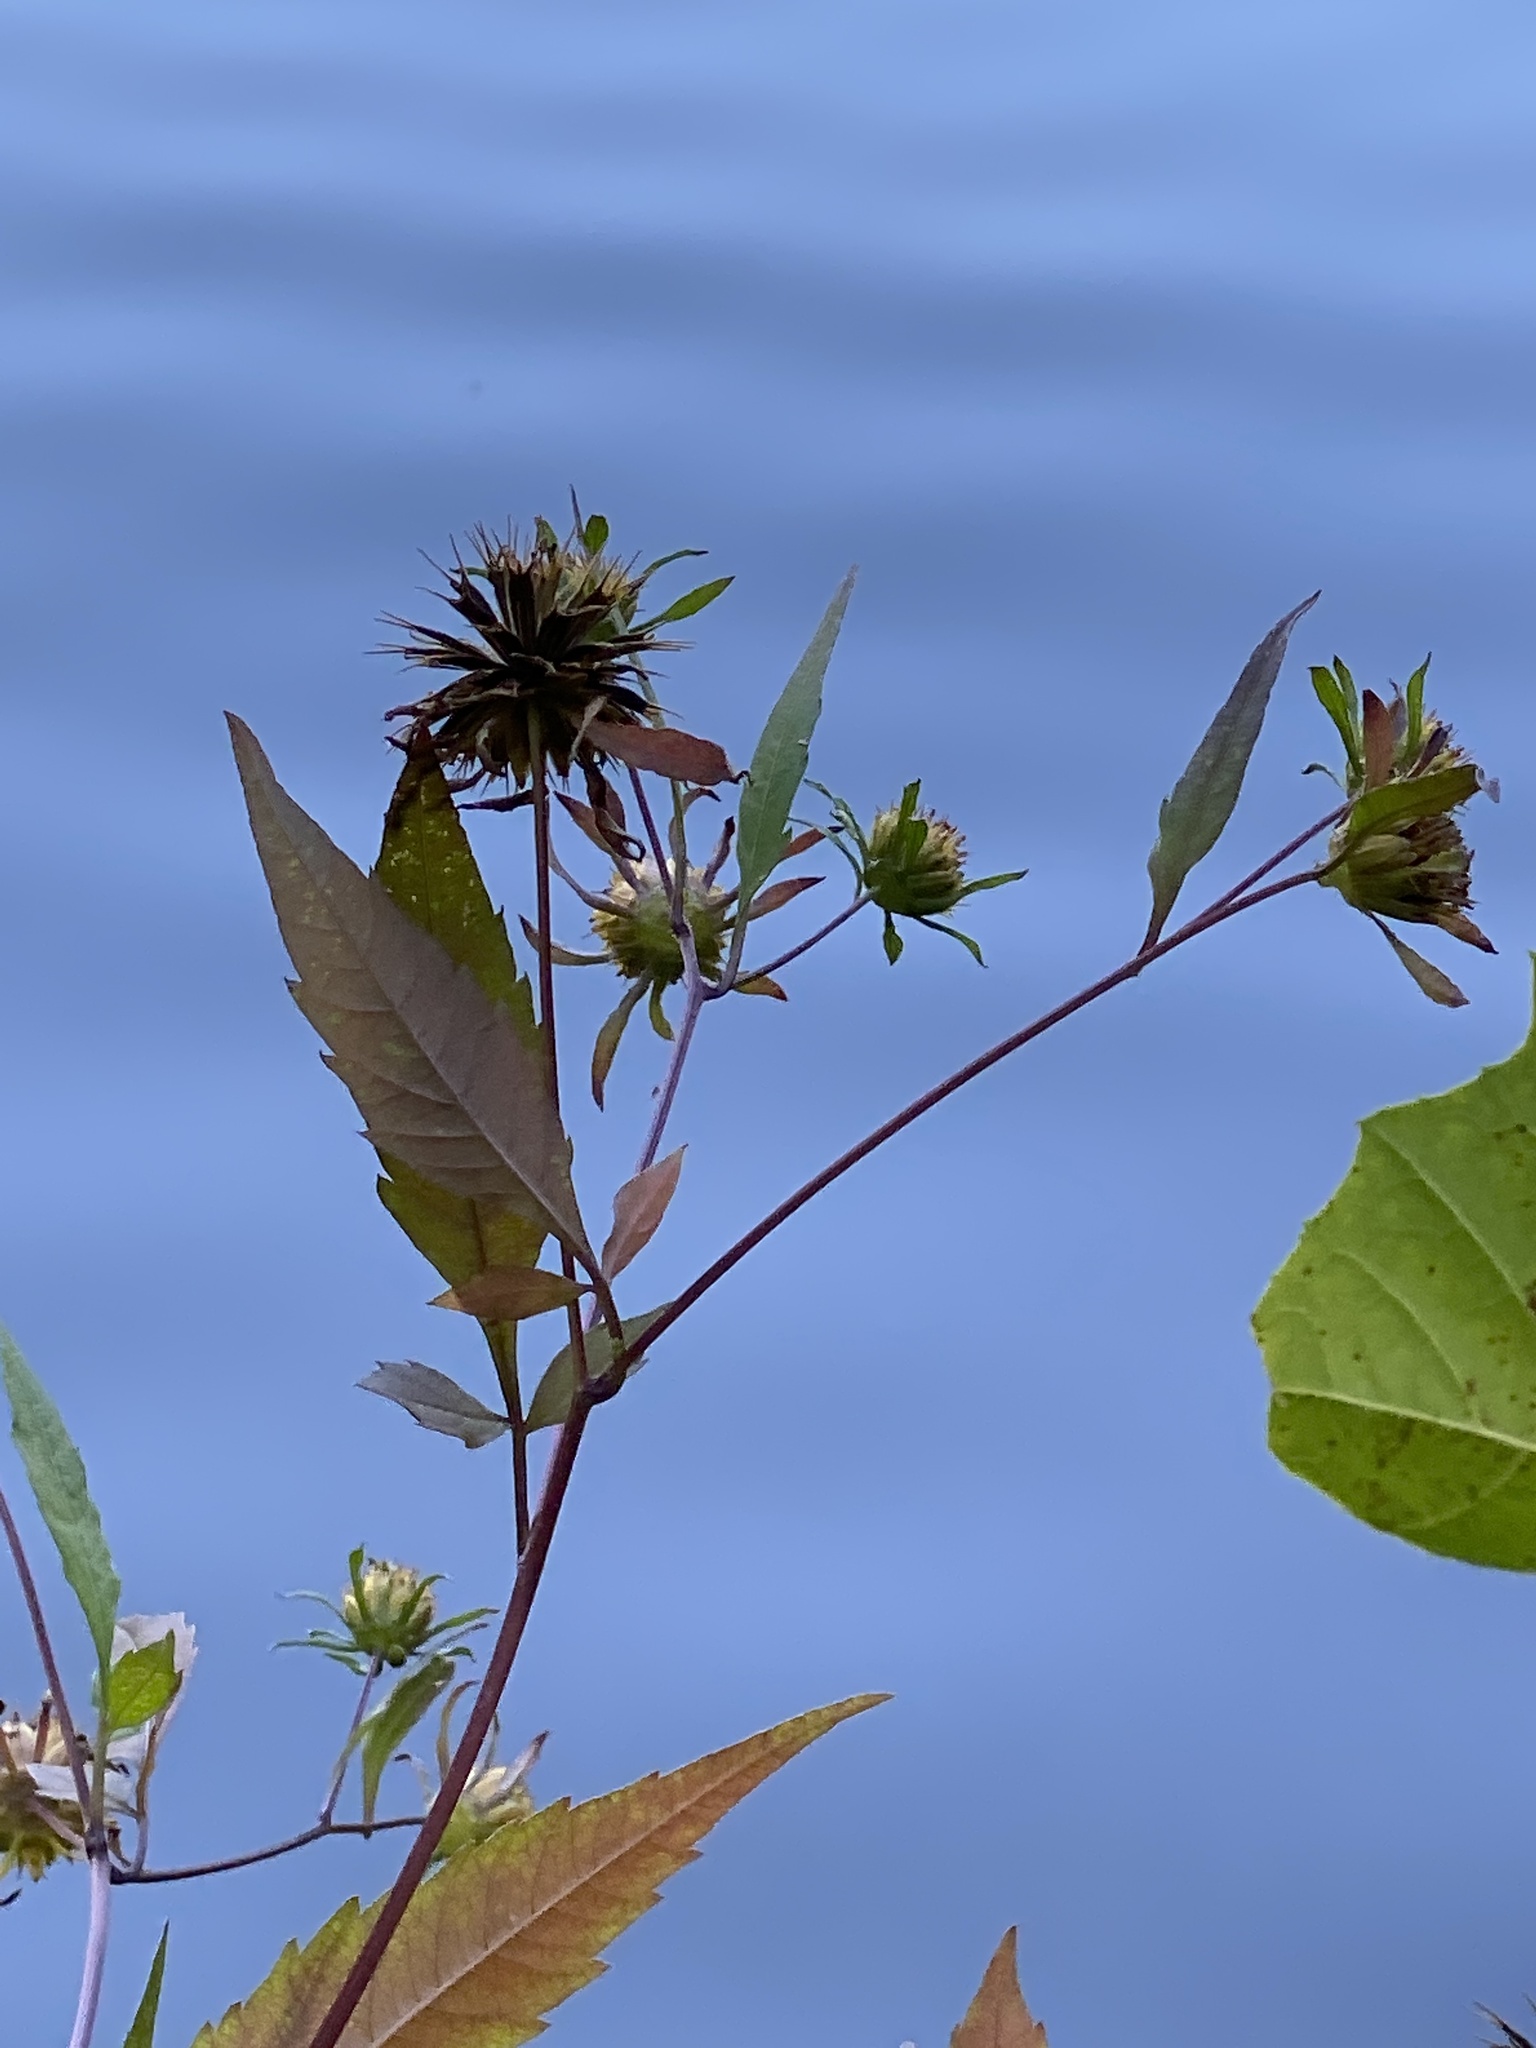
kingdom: Plantae
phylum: Tracheophyta
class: Magnoliopsida
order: Asterales
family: Asteraceae
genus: Bidens
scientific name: Bidens frondosa
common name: Beggarticks
